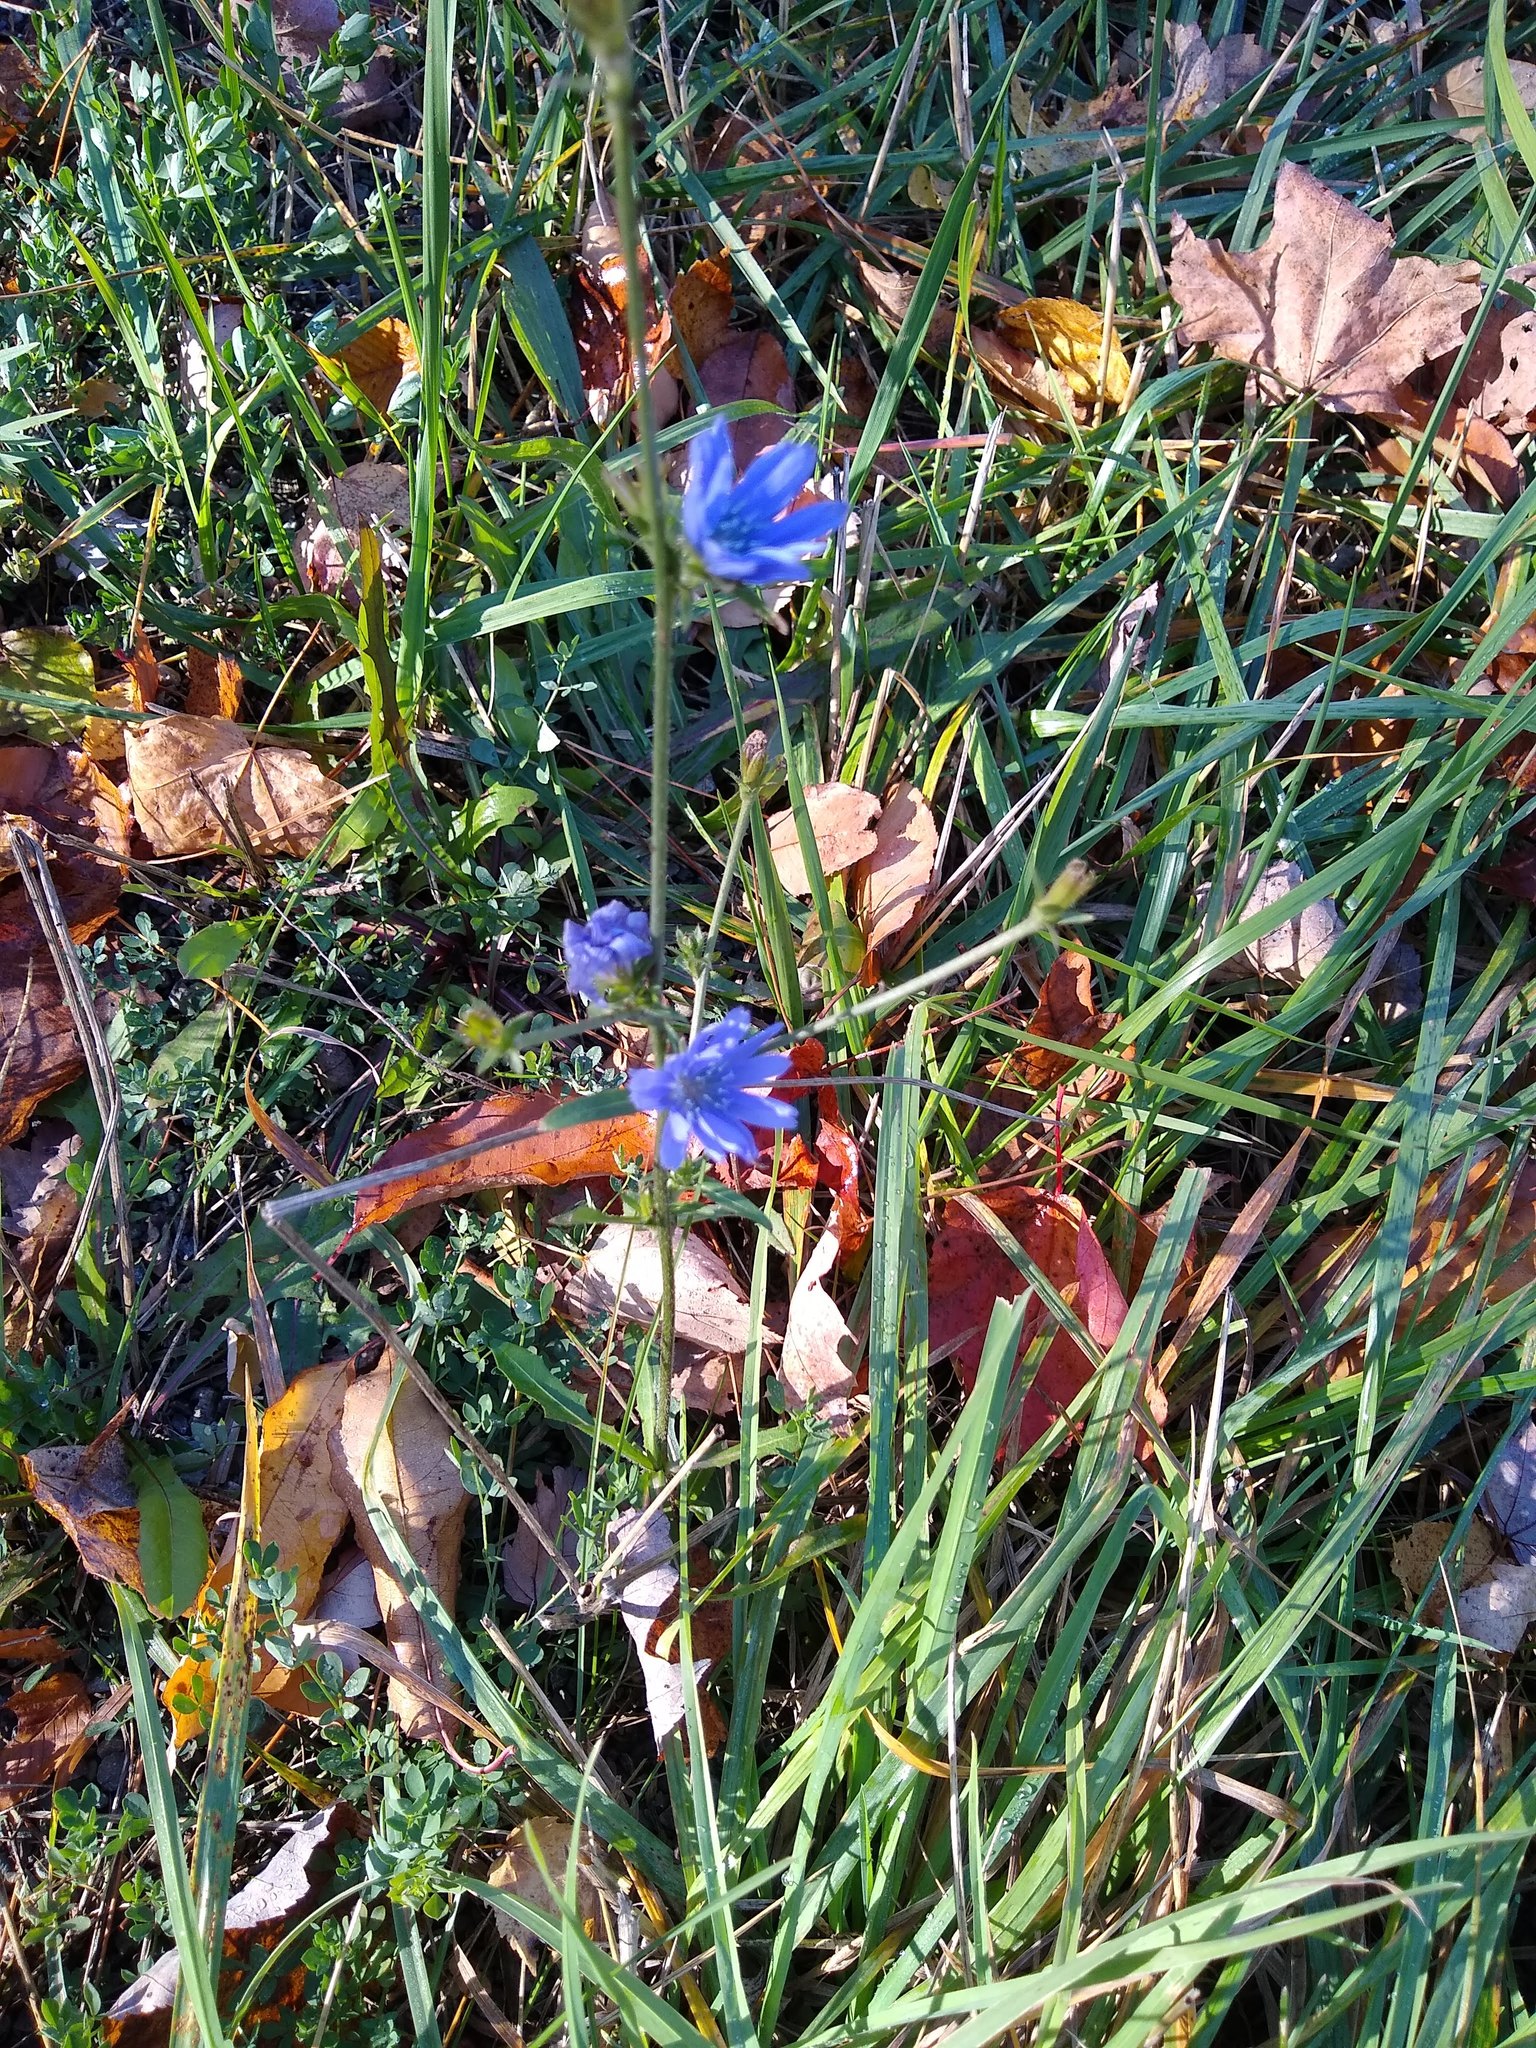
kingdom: Plantae
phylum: Tracheophyta
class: Magnoliopsida
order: Asterales
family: Asteraceae
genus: Cichorium
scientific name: Cichorium intybus
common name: Chicory
